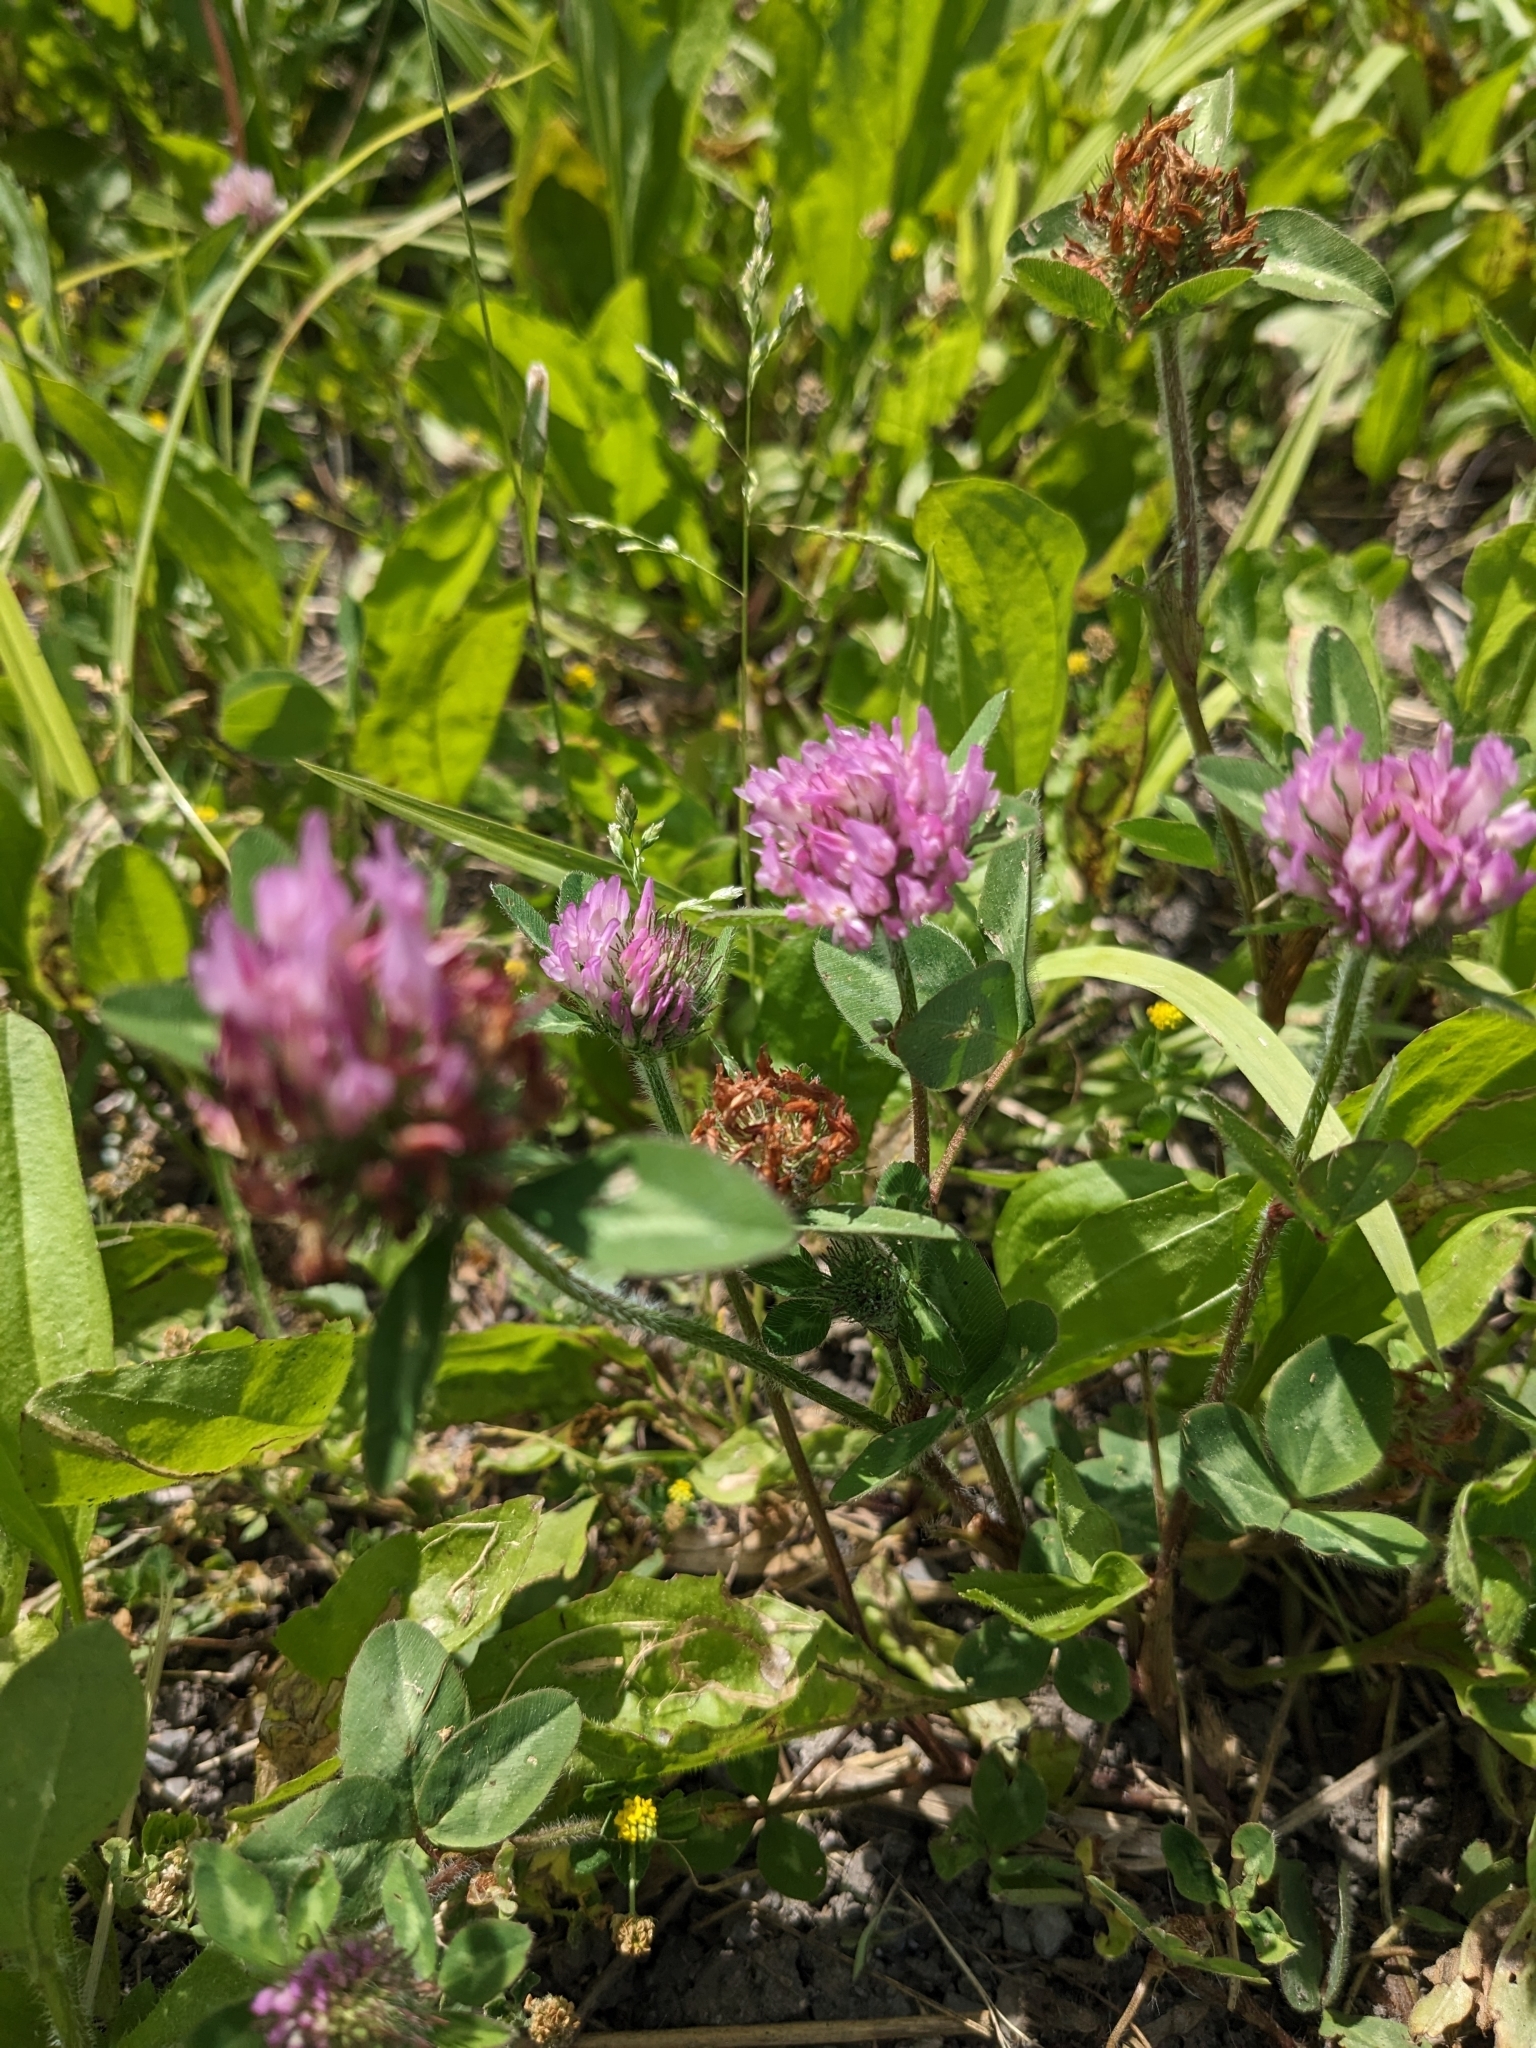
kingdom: Plantae
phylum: Tracheophyta
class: Magnoliopsida
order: Fabales
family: Fabaceae
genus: Trifolium
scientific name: Trifolium pratense
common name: Red clover
